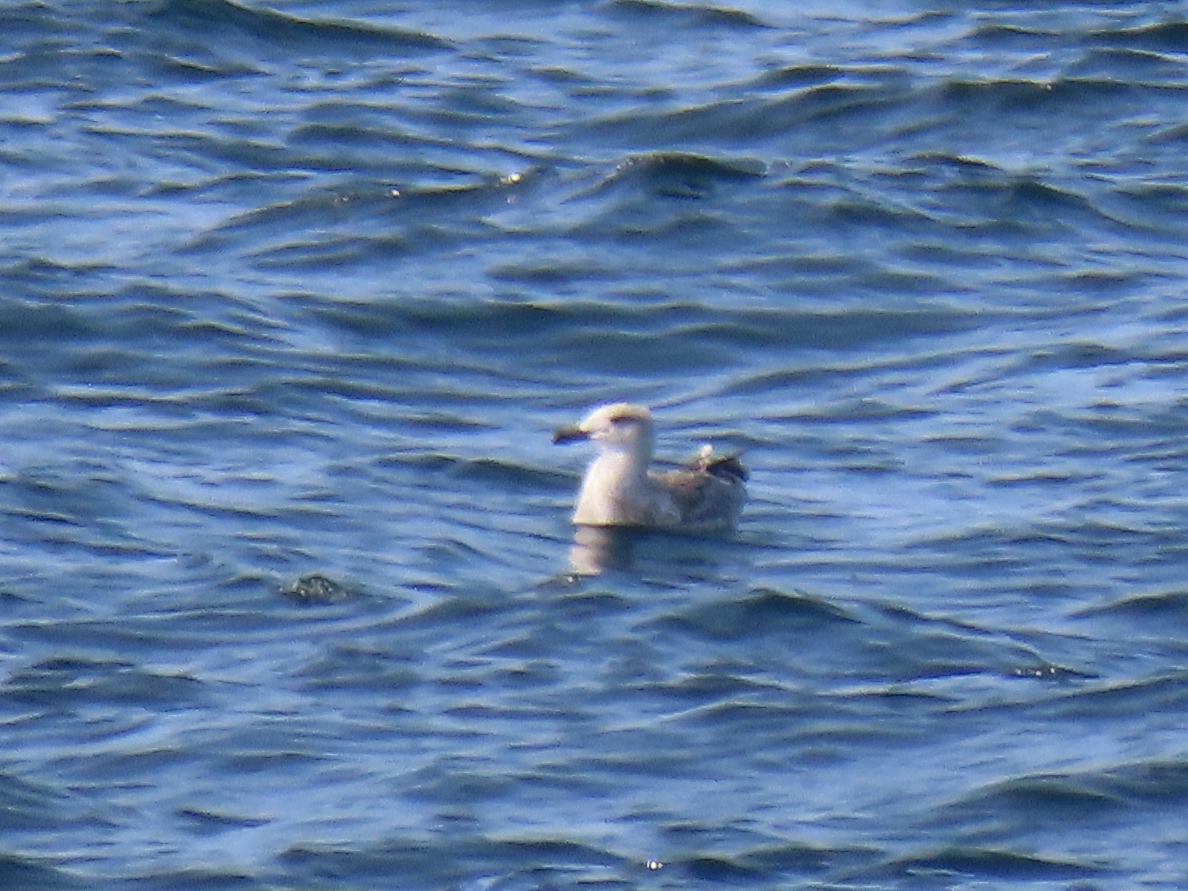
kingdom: Animalia
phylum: Chordata
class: Aves
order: Charadriiformes
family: Laridae
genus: Larus
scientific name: Larus marinus
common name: Great black-backed gull
